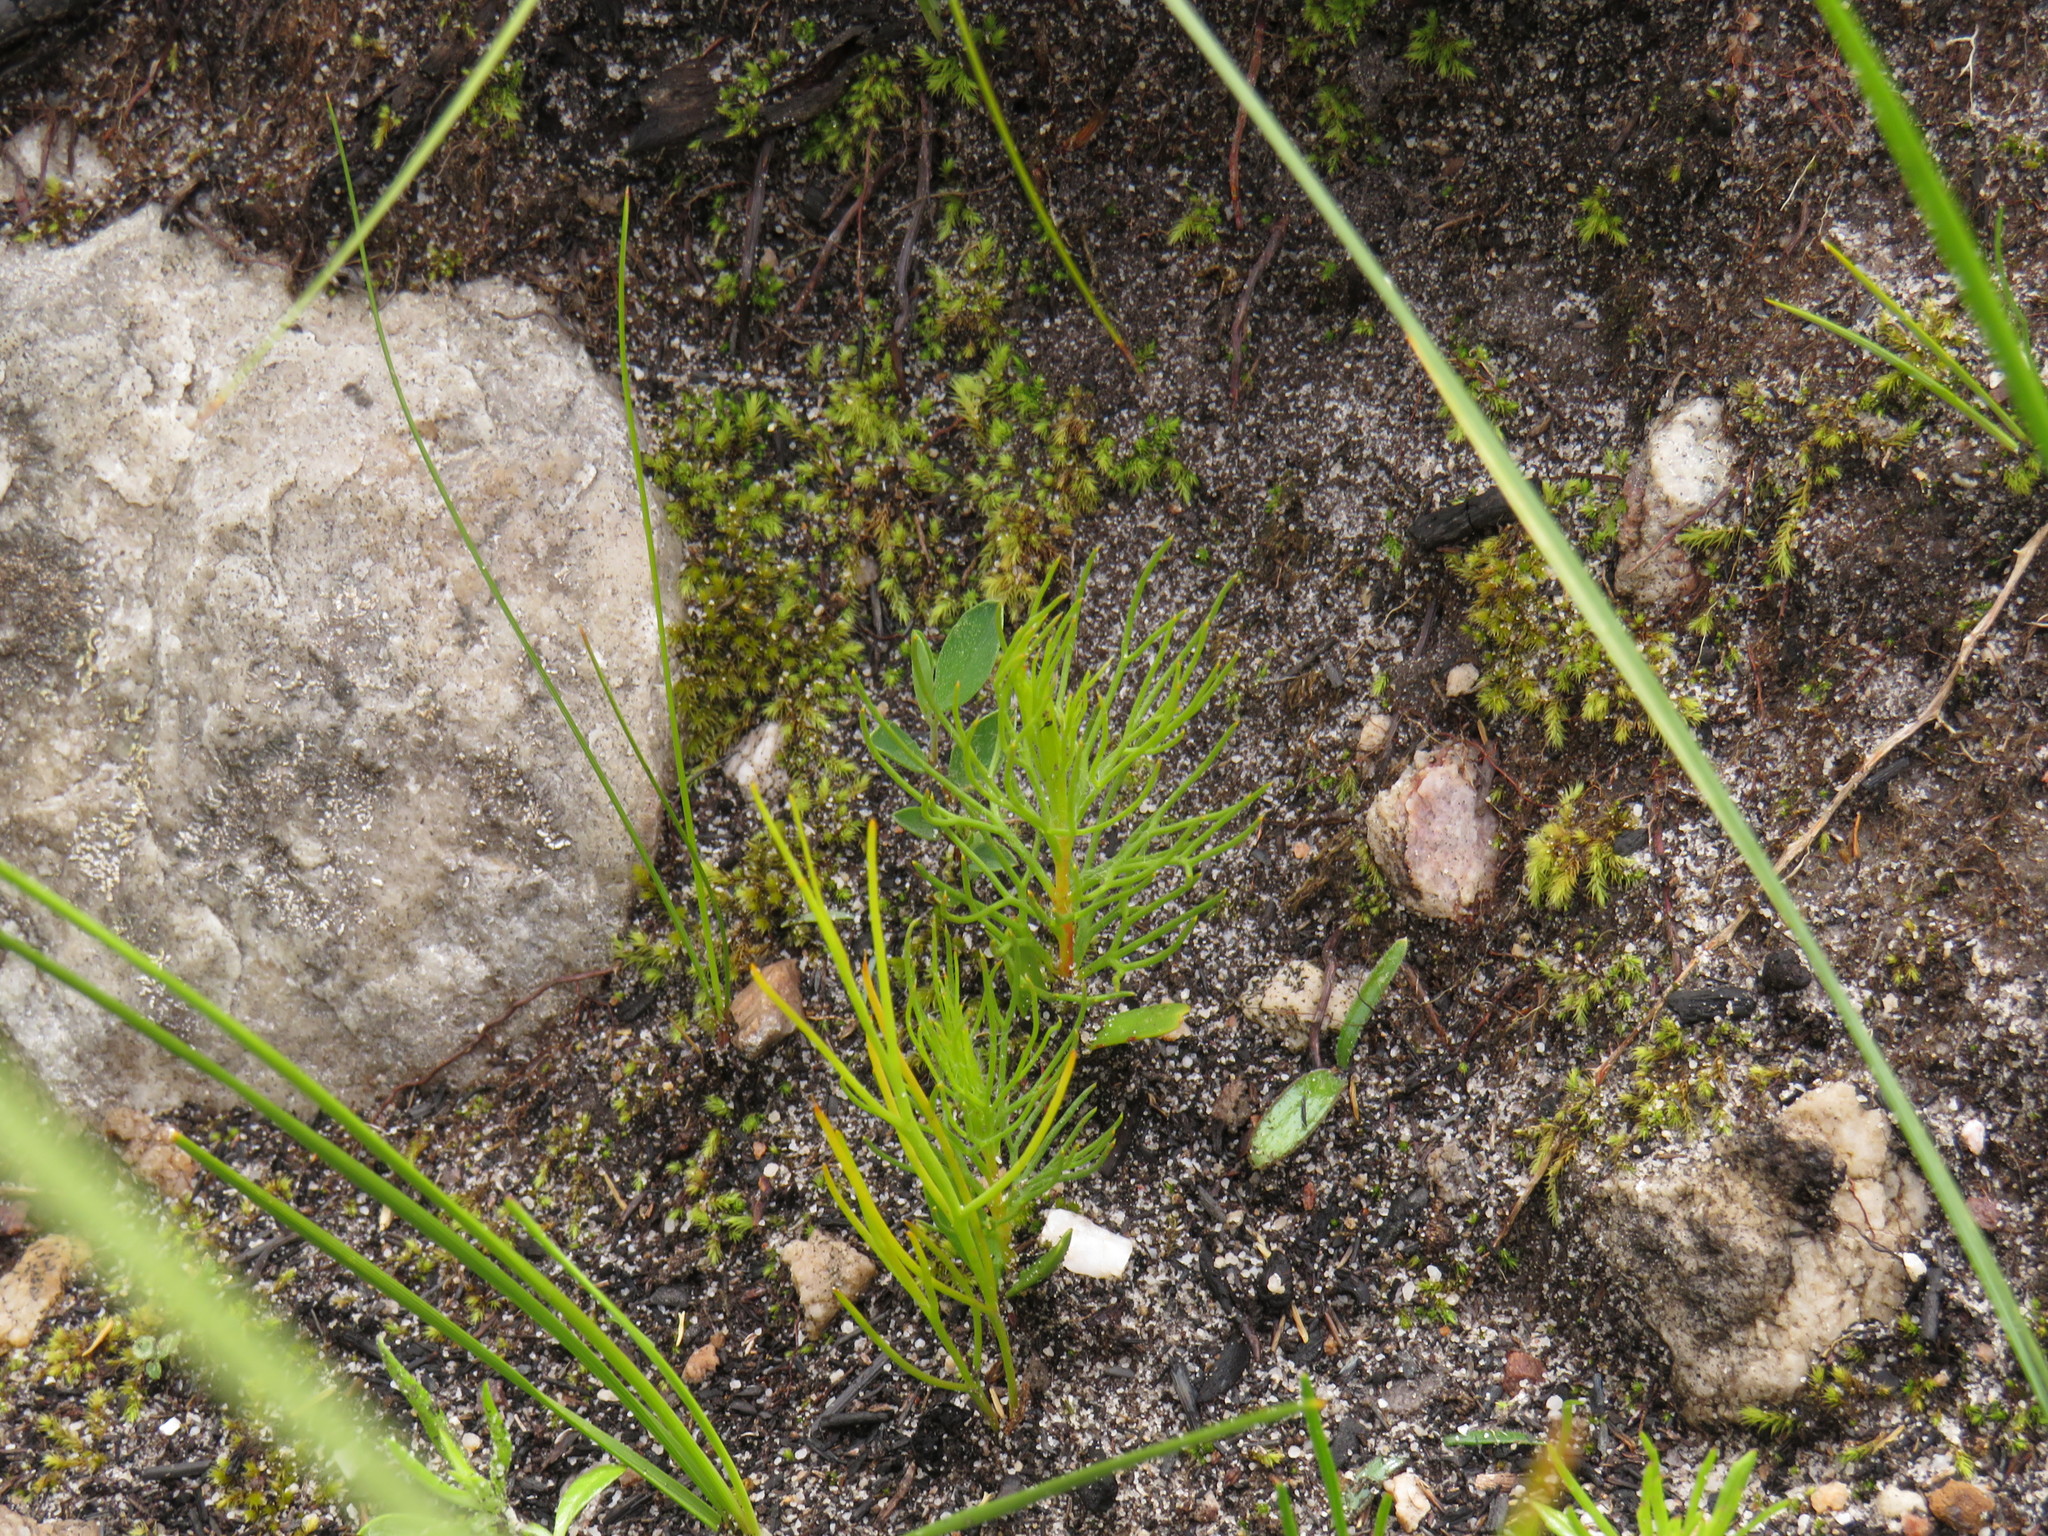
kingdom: Plantae
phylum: Tracheophyta
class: Magnoliopsida
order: Proteales
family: Proteaceae
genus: Serruria
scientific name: Serruria florida
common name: Blushing bride
